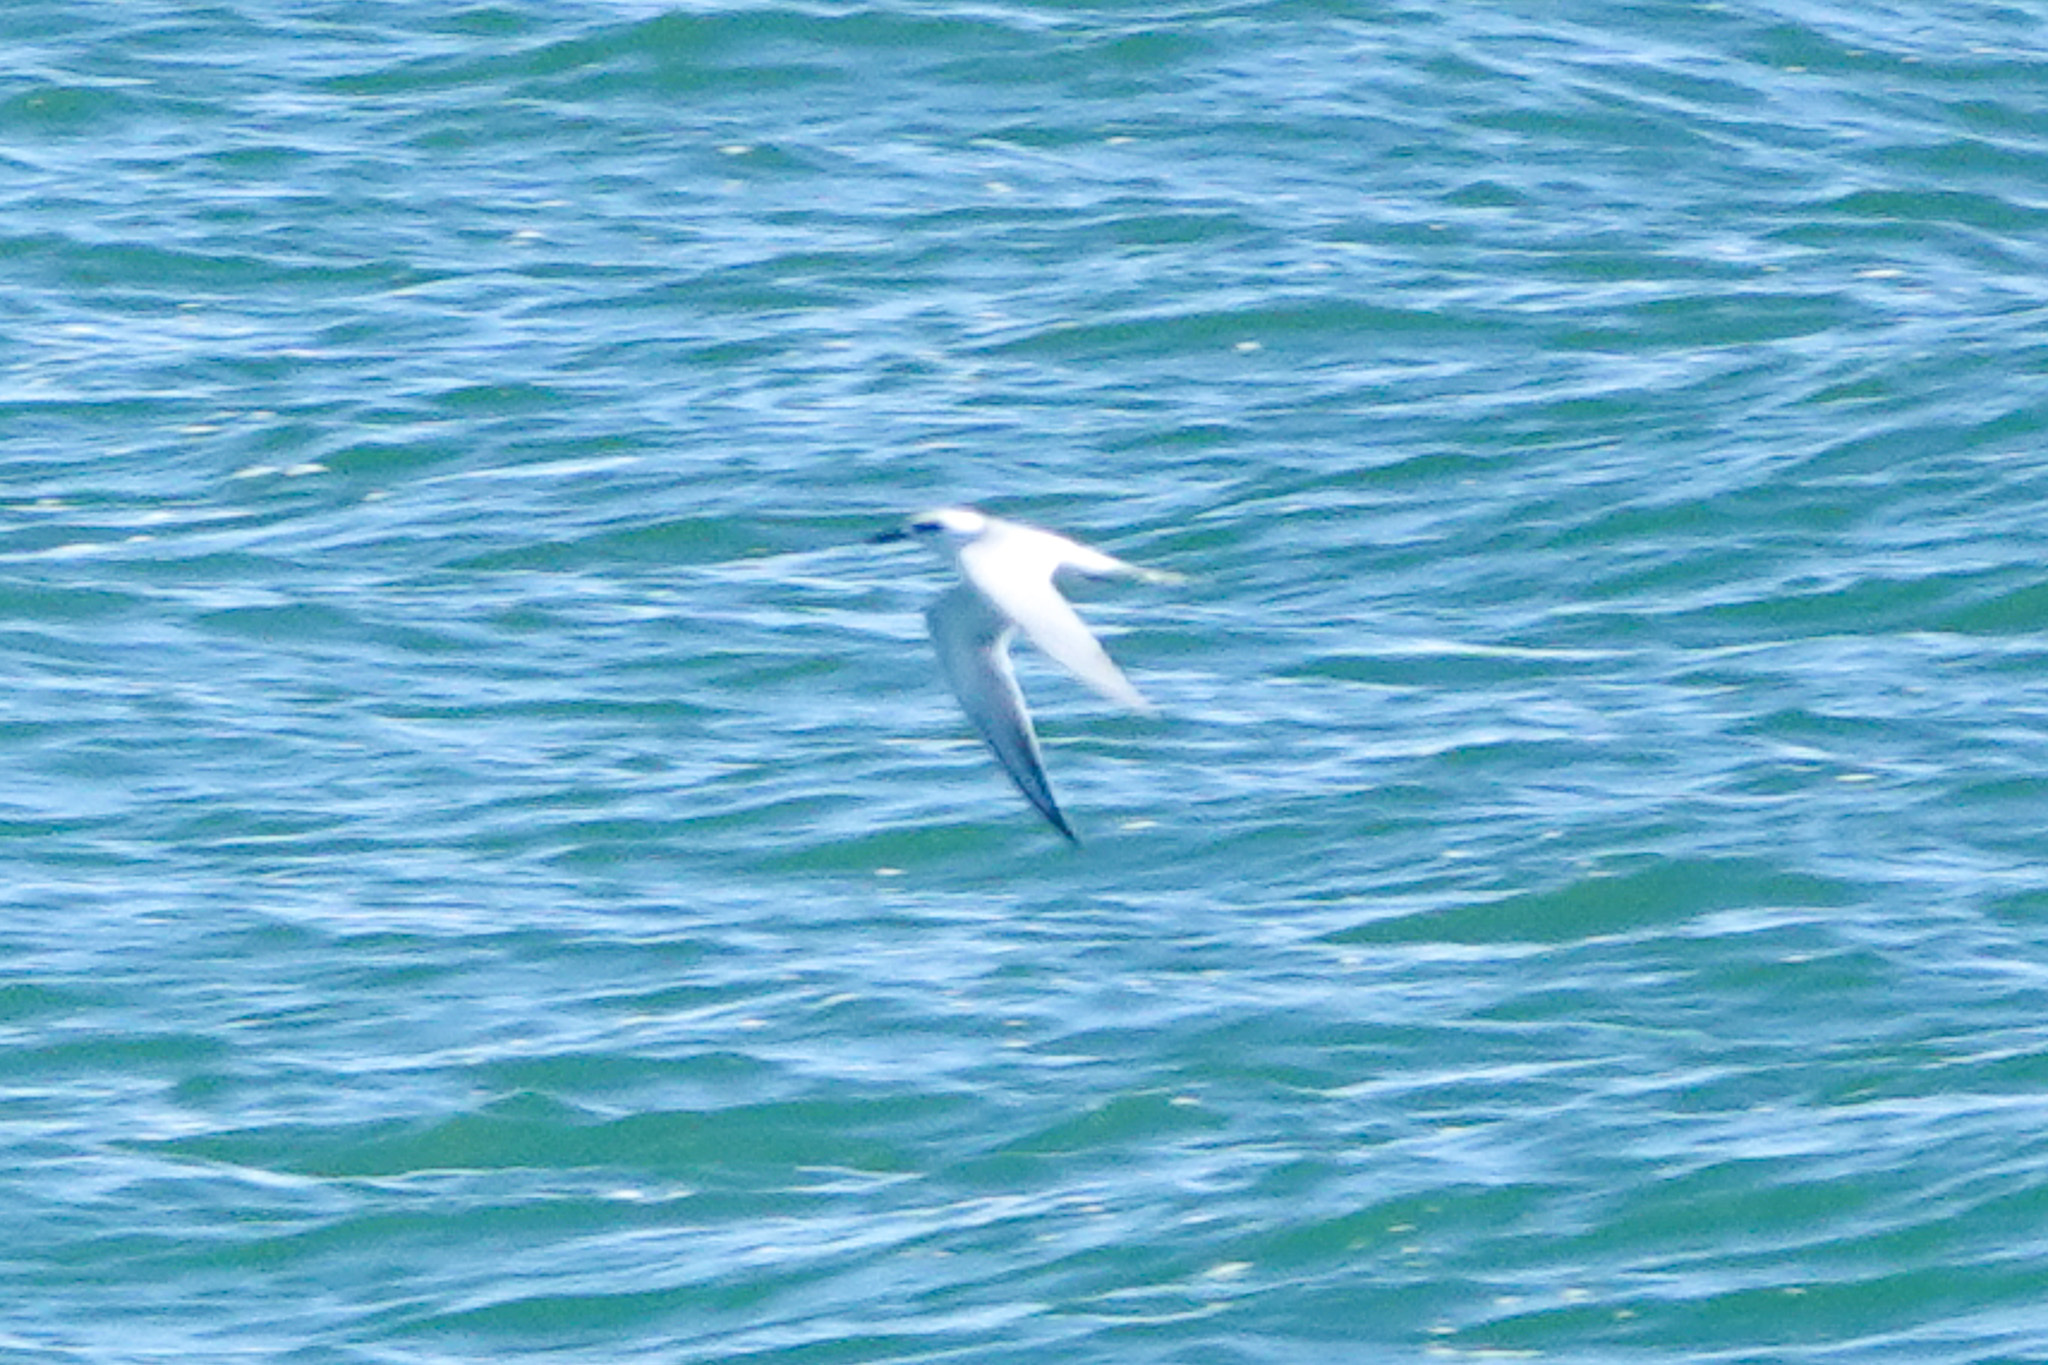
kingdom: Animalia
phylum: Chordata
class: Aves
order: Charadriiformes
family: Laridae
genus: Sterna
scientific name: Sterna forsteri
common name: Forster's tern
